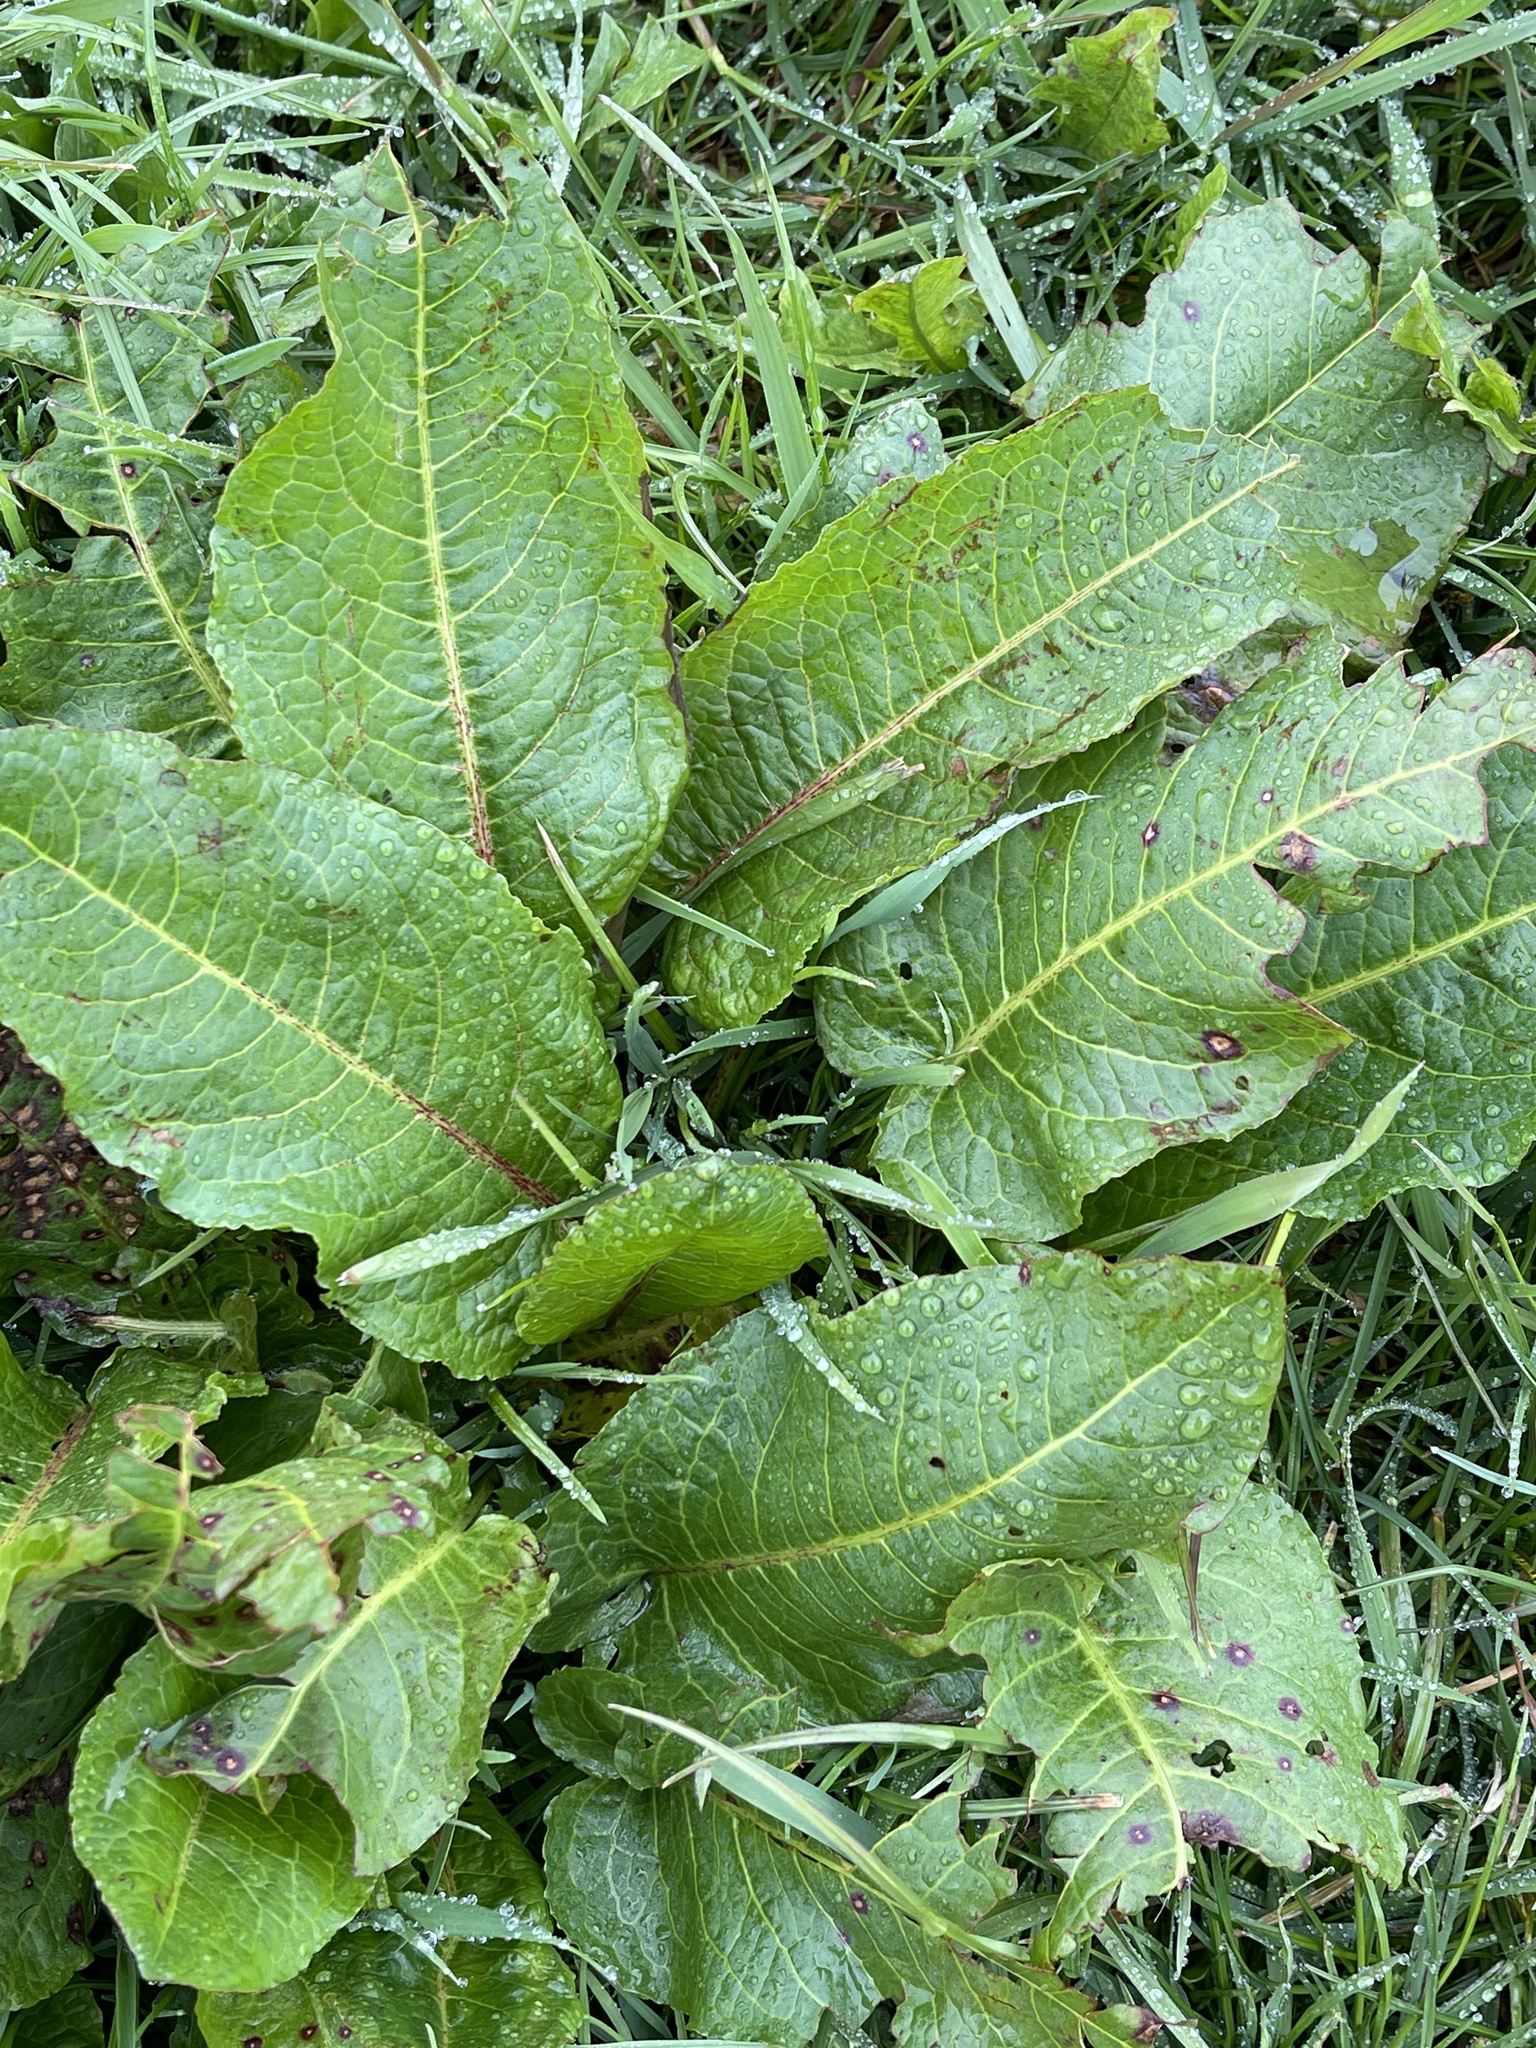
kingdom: Plantae
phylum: Tracheophyta
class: Magnoliopsida
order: Caryophyllales
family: Polygonaceae
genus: Rumex
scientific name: Rumex obtusifolius
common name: Bitter dock
